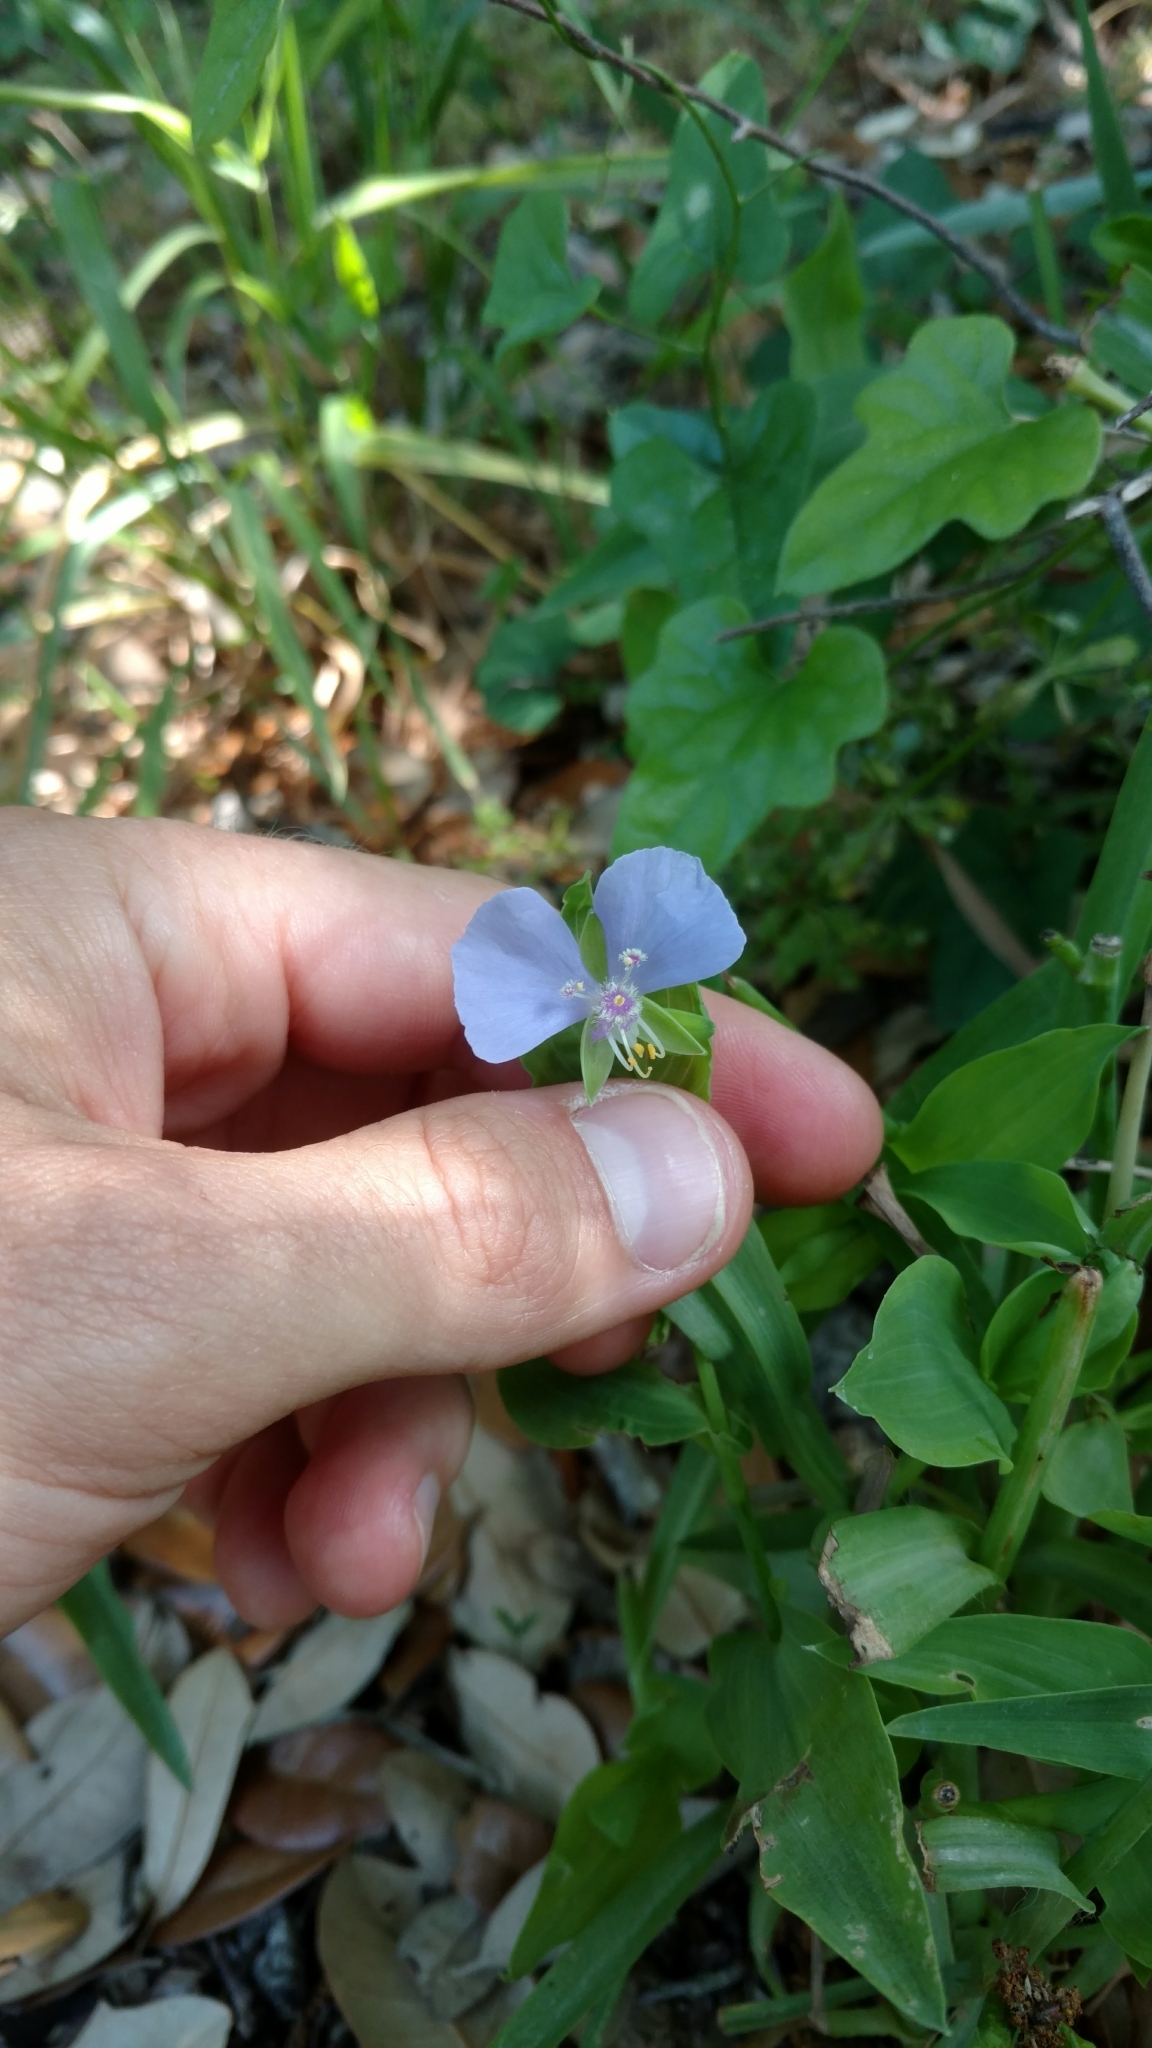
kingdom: Plantae
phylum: Tracheophyta
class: Liliopsida
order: Commelinales
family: Commelinaceae
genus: Tinantia
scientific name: Tinantia anomala
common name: False dayflower
